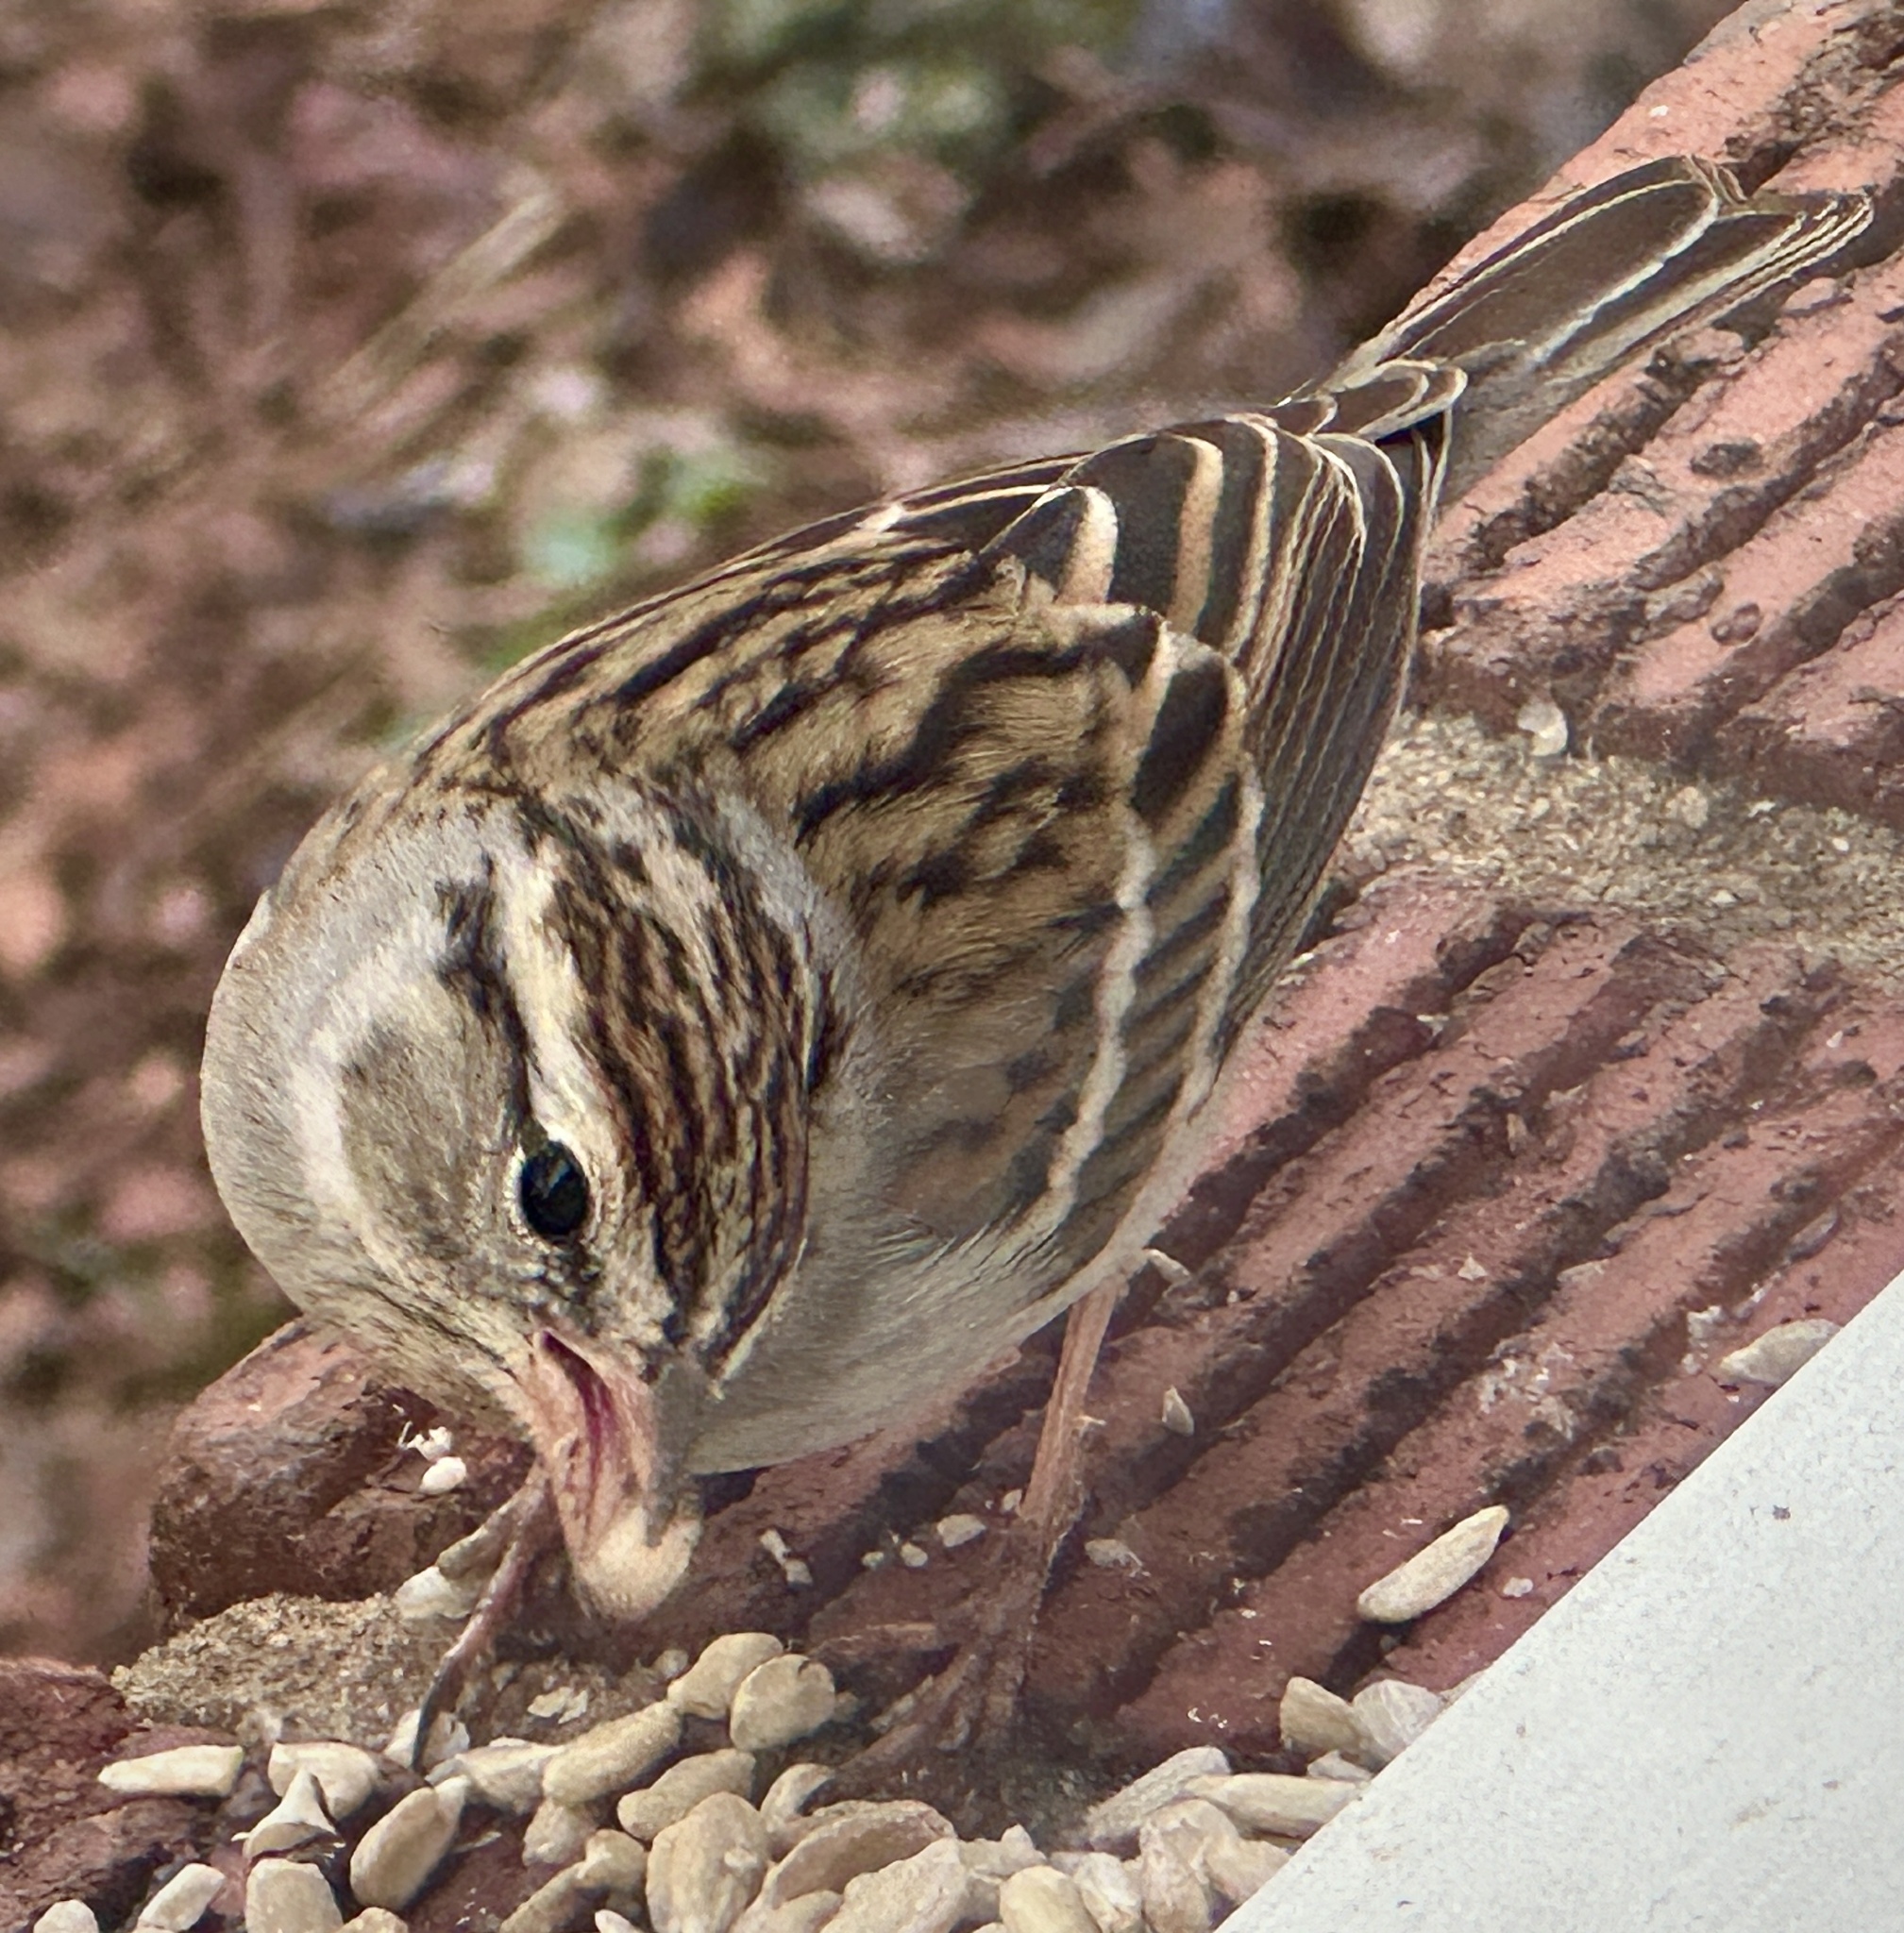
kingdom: Animalia
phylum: Chordata
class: Aves
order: Passeriformes
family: Passerellidae
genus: Spizella
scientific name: Spizella passerina
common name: Chipping sparrow
